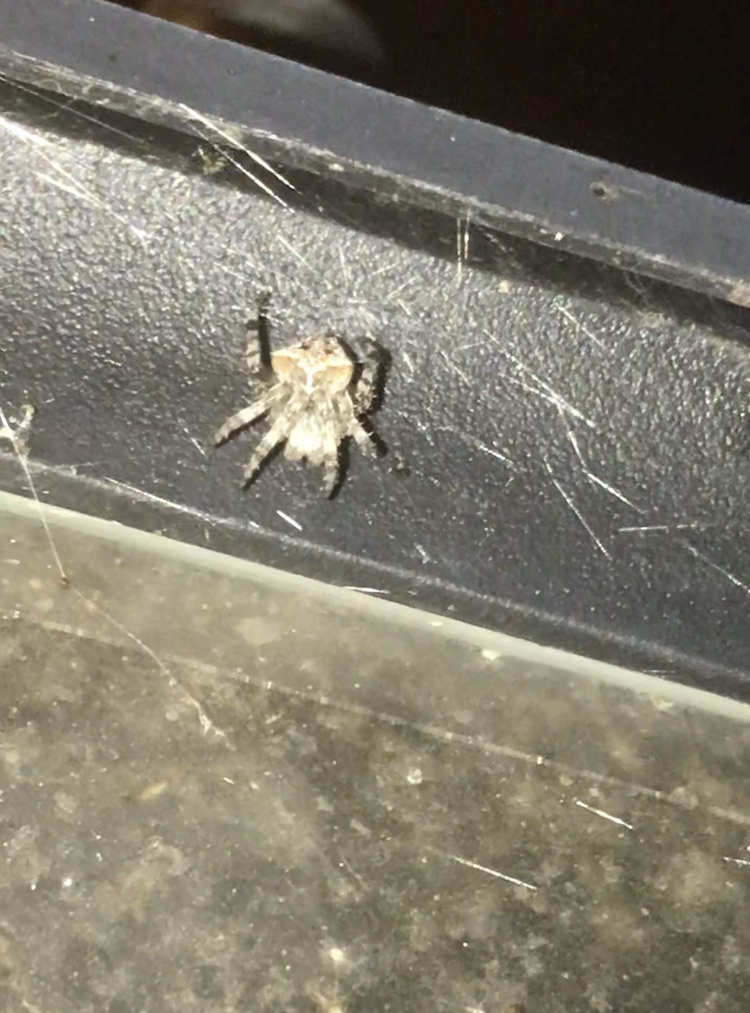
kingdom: Animalia
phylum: Arthropoda
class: Arachnida
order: Araneae
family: Araneidae
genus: Araneus
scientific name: Araneus gemmoides
